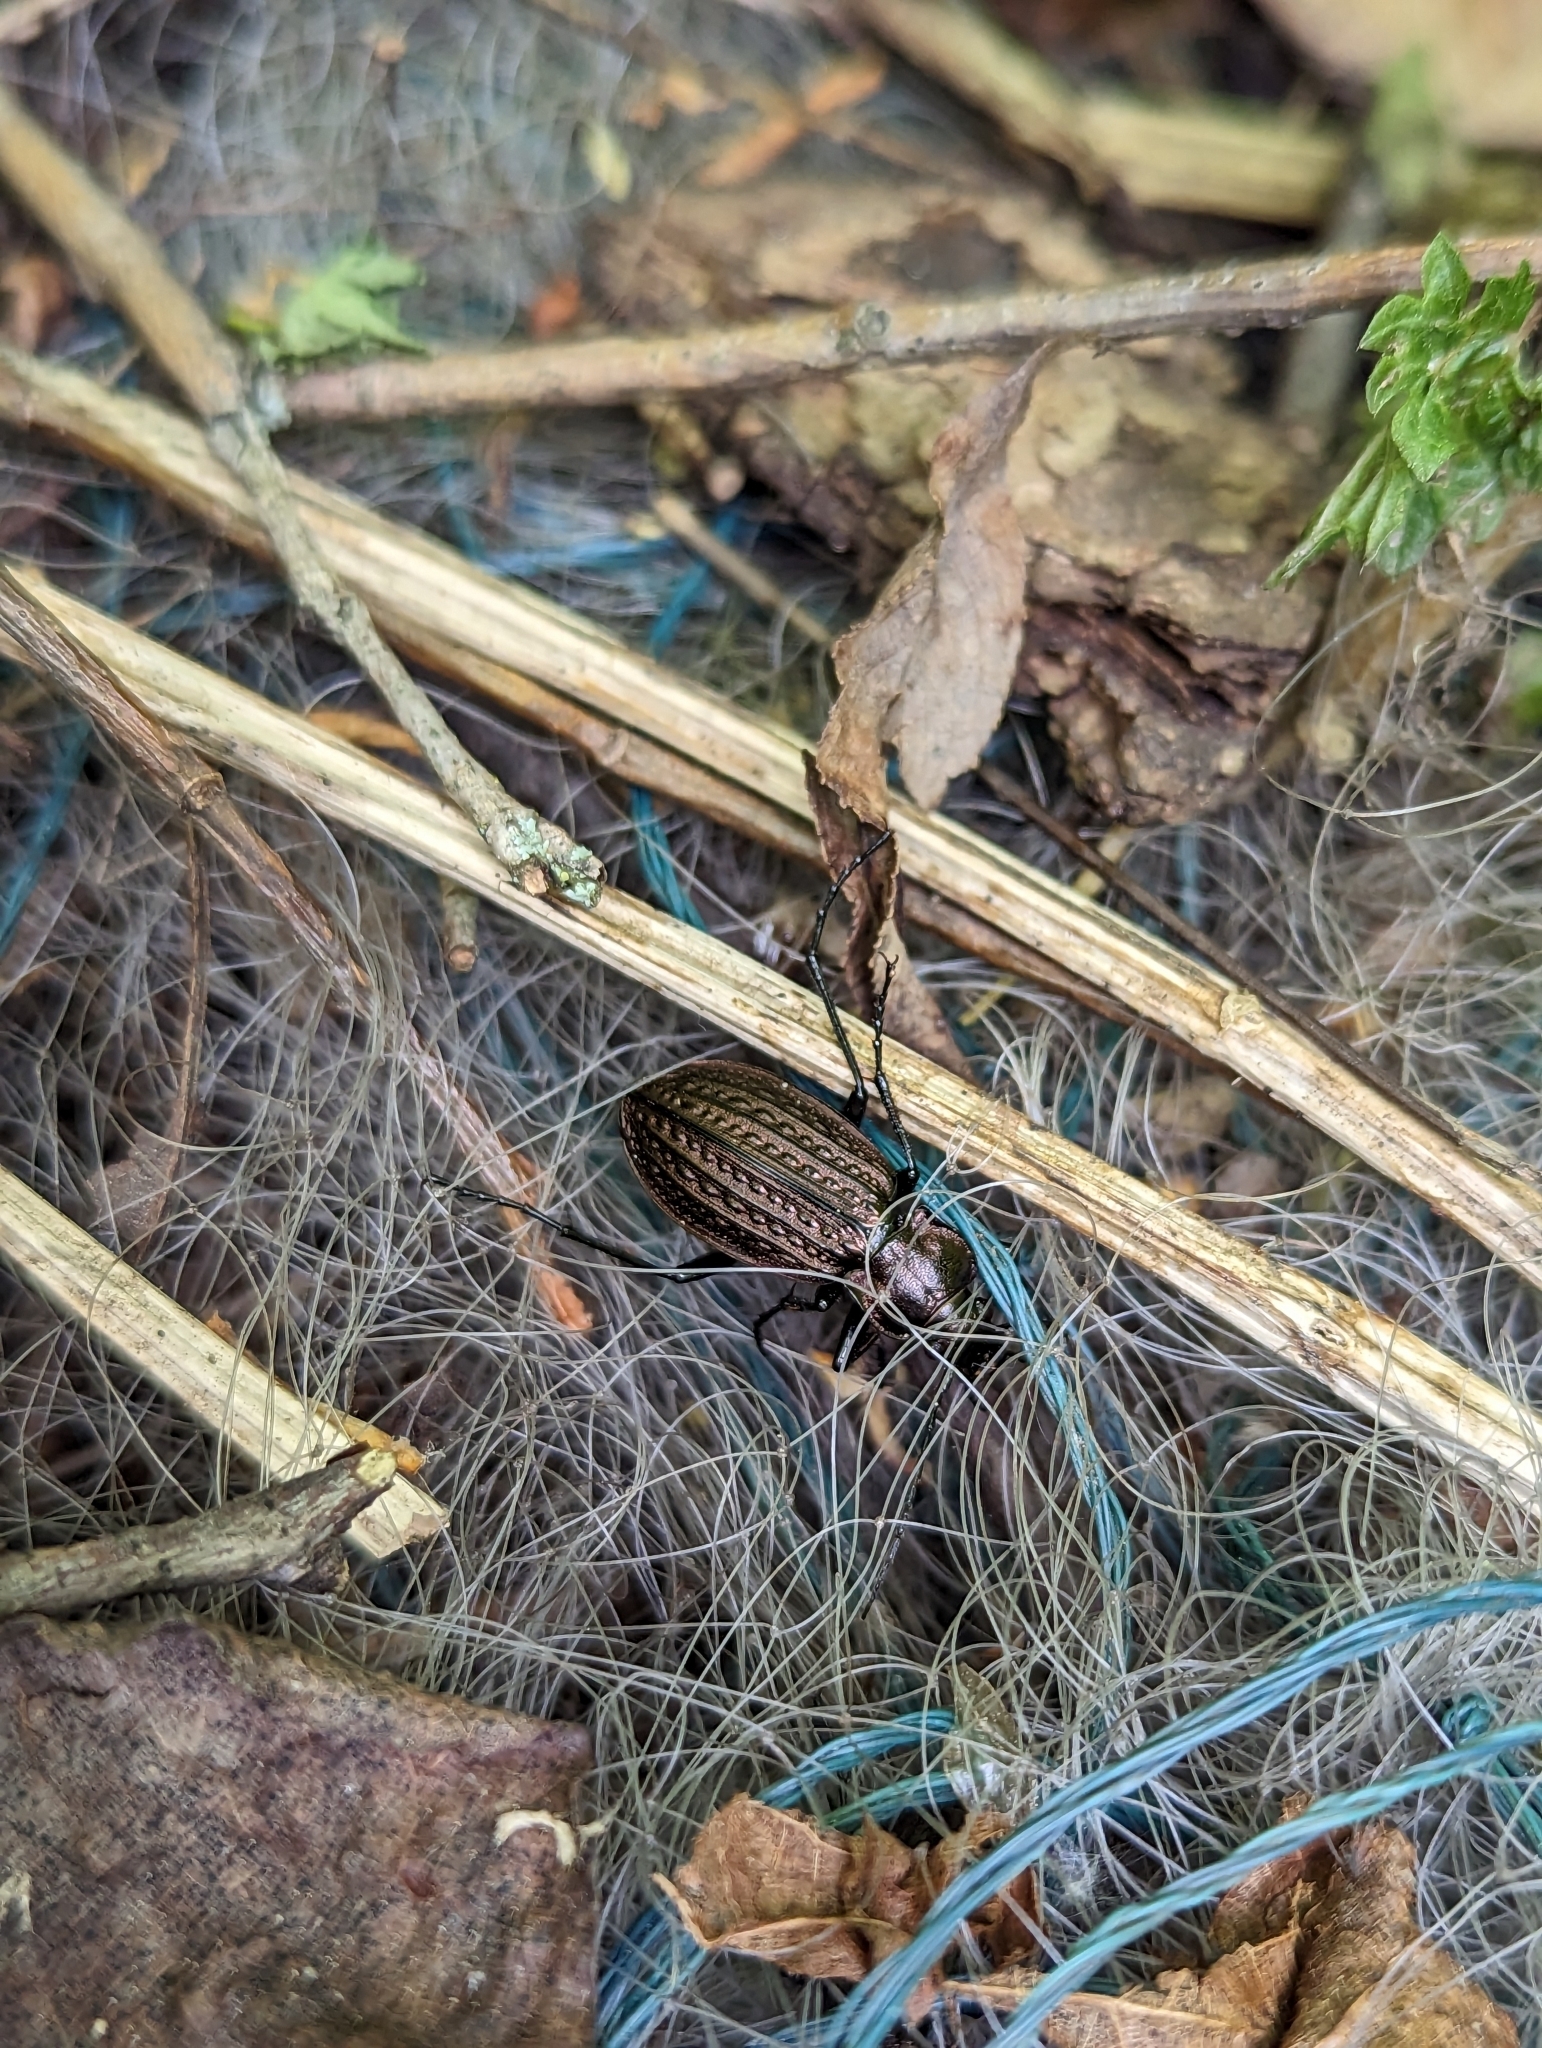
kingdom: Animalia
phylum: Arthropoda
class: Insecta
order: Coleoptera
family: Carabidae
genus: Carabus
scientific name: Carabus granulatus
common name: Granulate ground beetle
